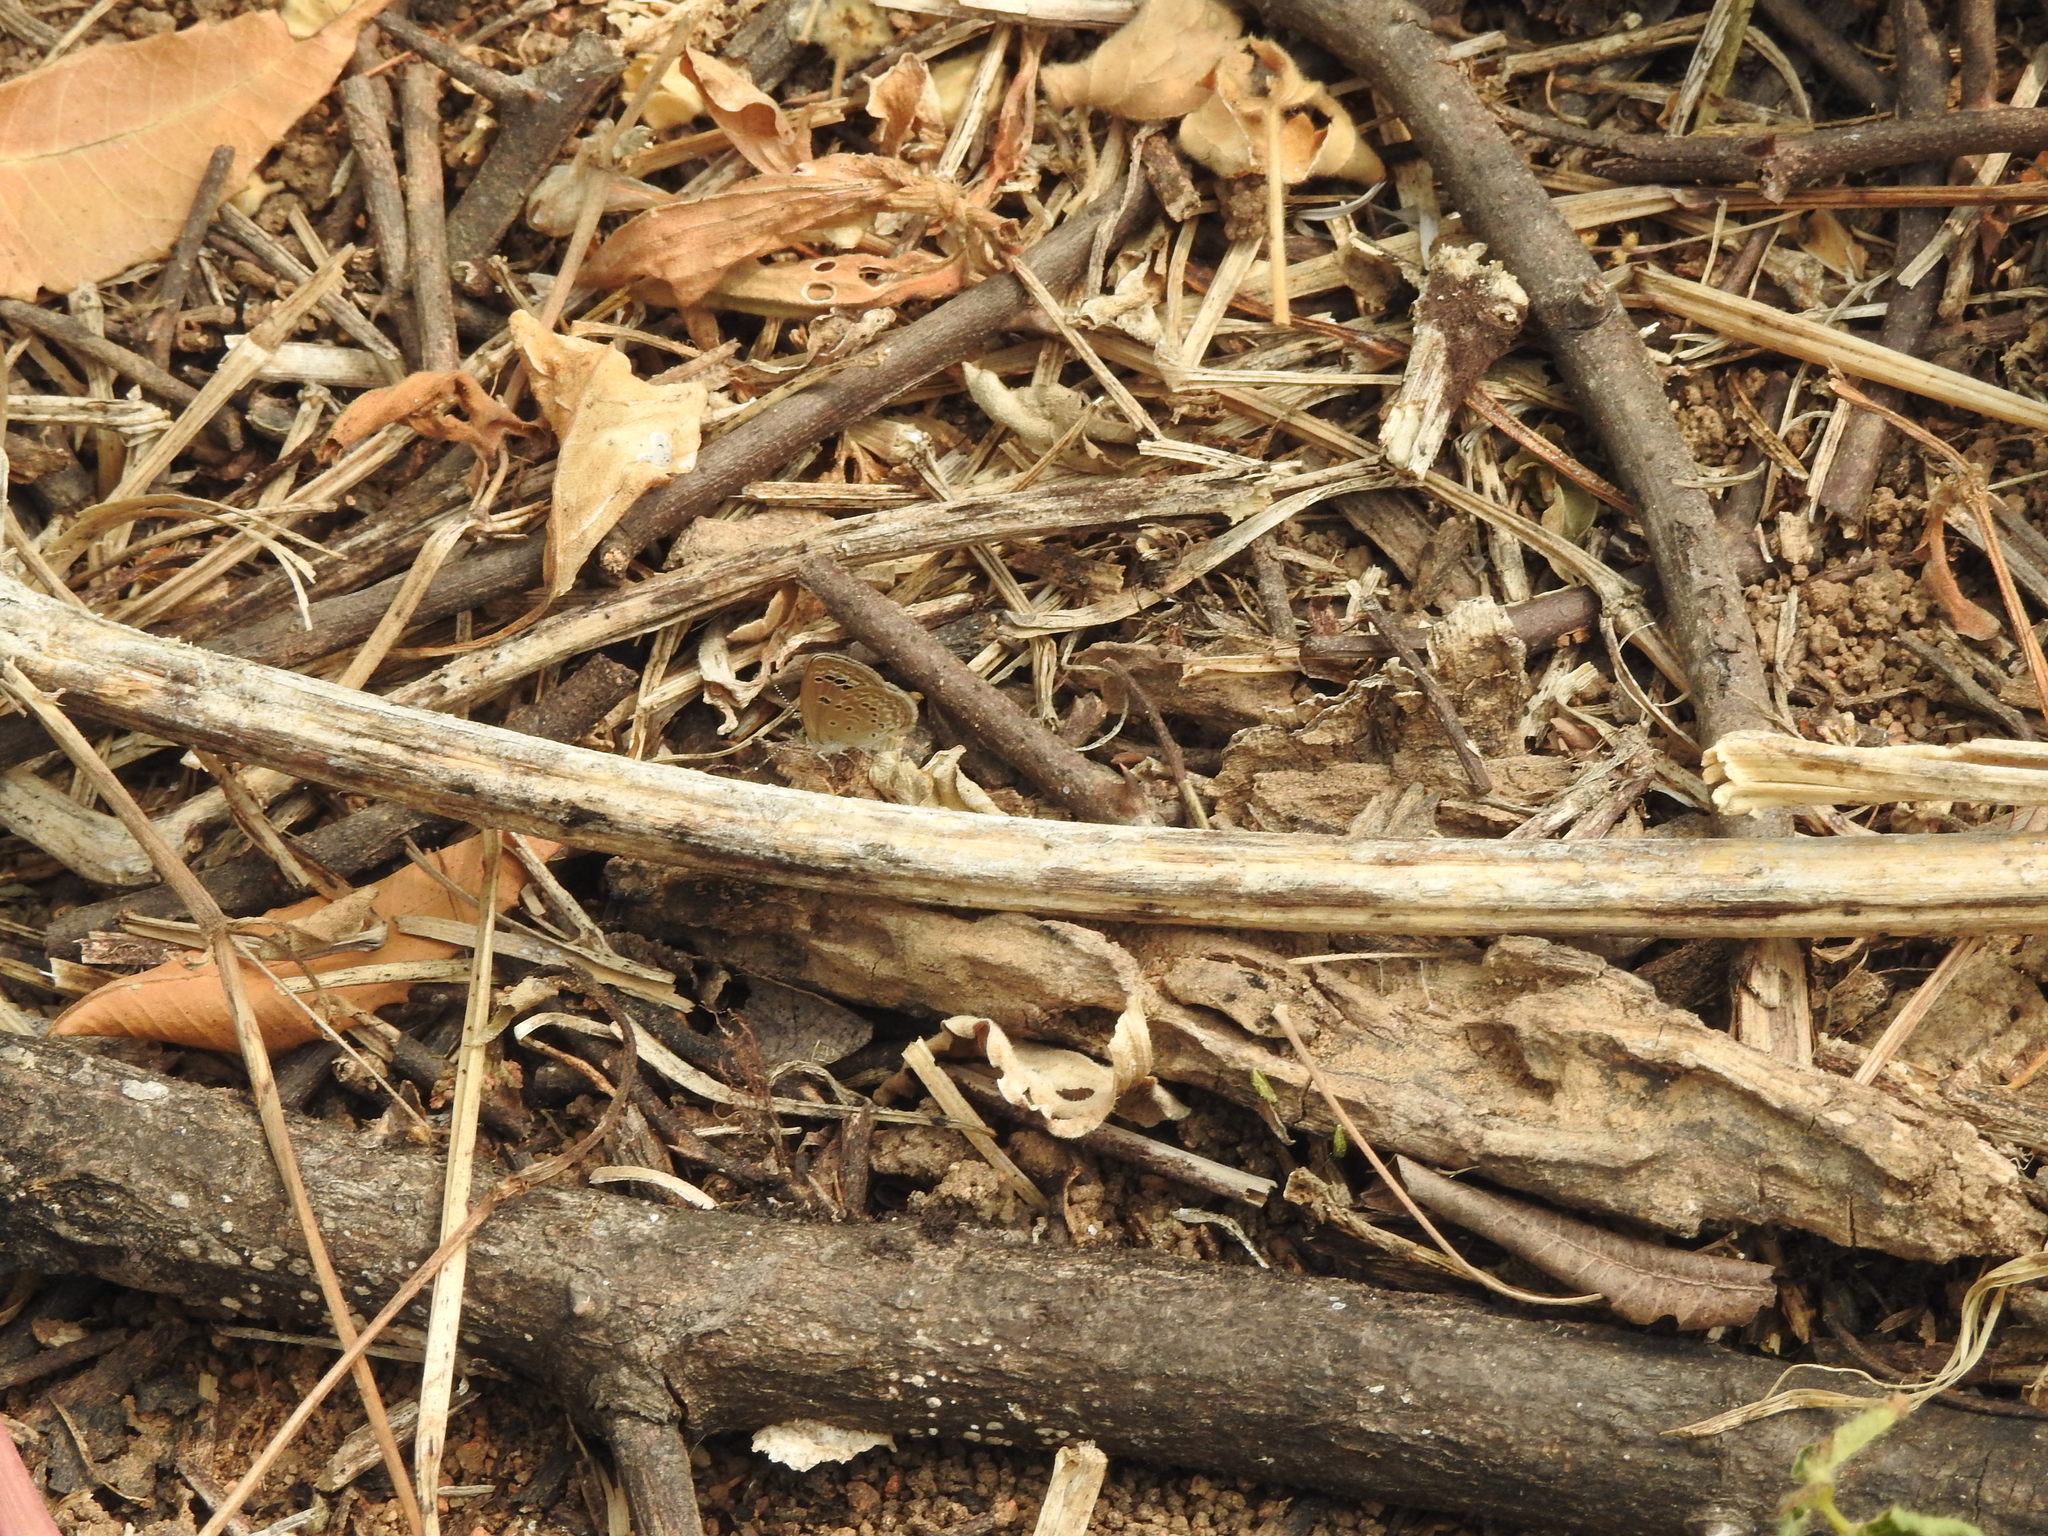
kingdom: Animalia
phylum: Arthropoda
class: Insecta
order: Lepidoptera
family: Lycaenidae
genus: Zizina
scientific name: Zizina otis
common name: Lesser grass blue
